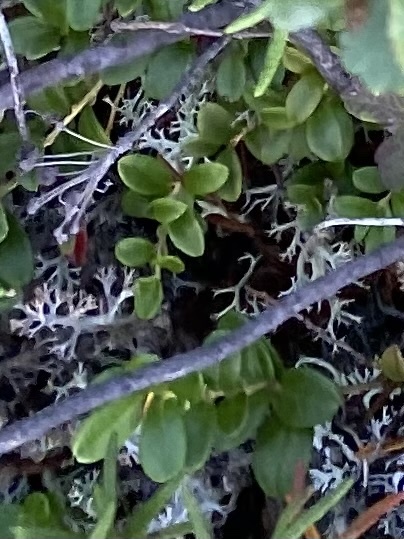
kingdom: Plantae
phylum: Tracheophyta
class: Magnoliopsida
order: Ericales
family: Ericaceae
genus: Vaccinium
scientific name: Vaccinium vitis-idaea
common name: Cowberry
